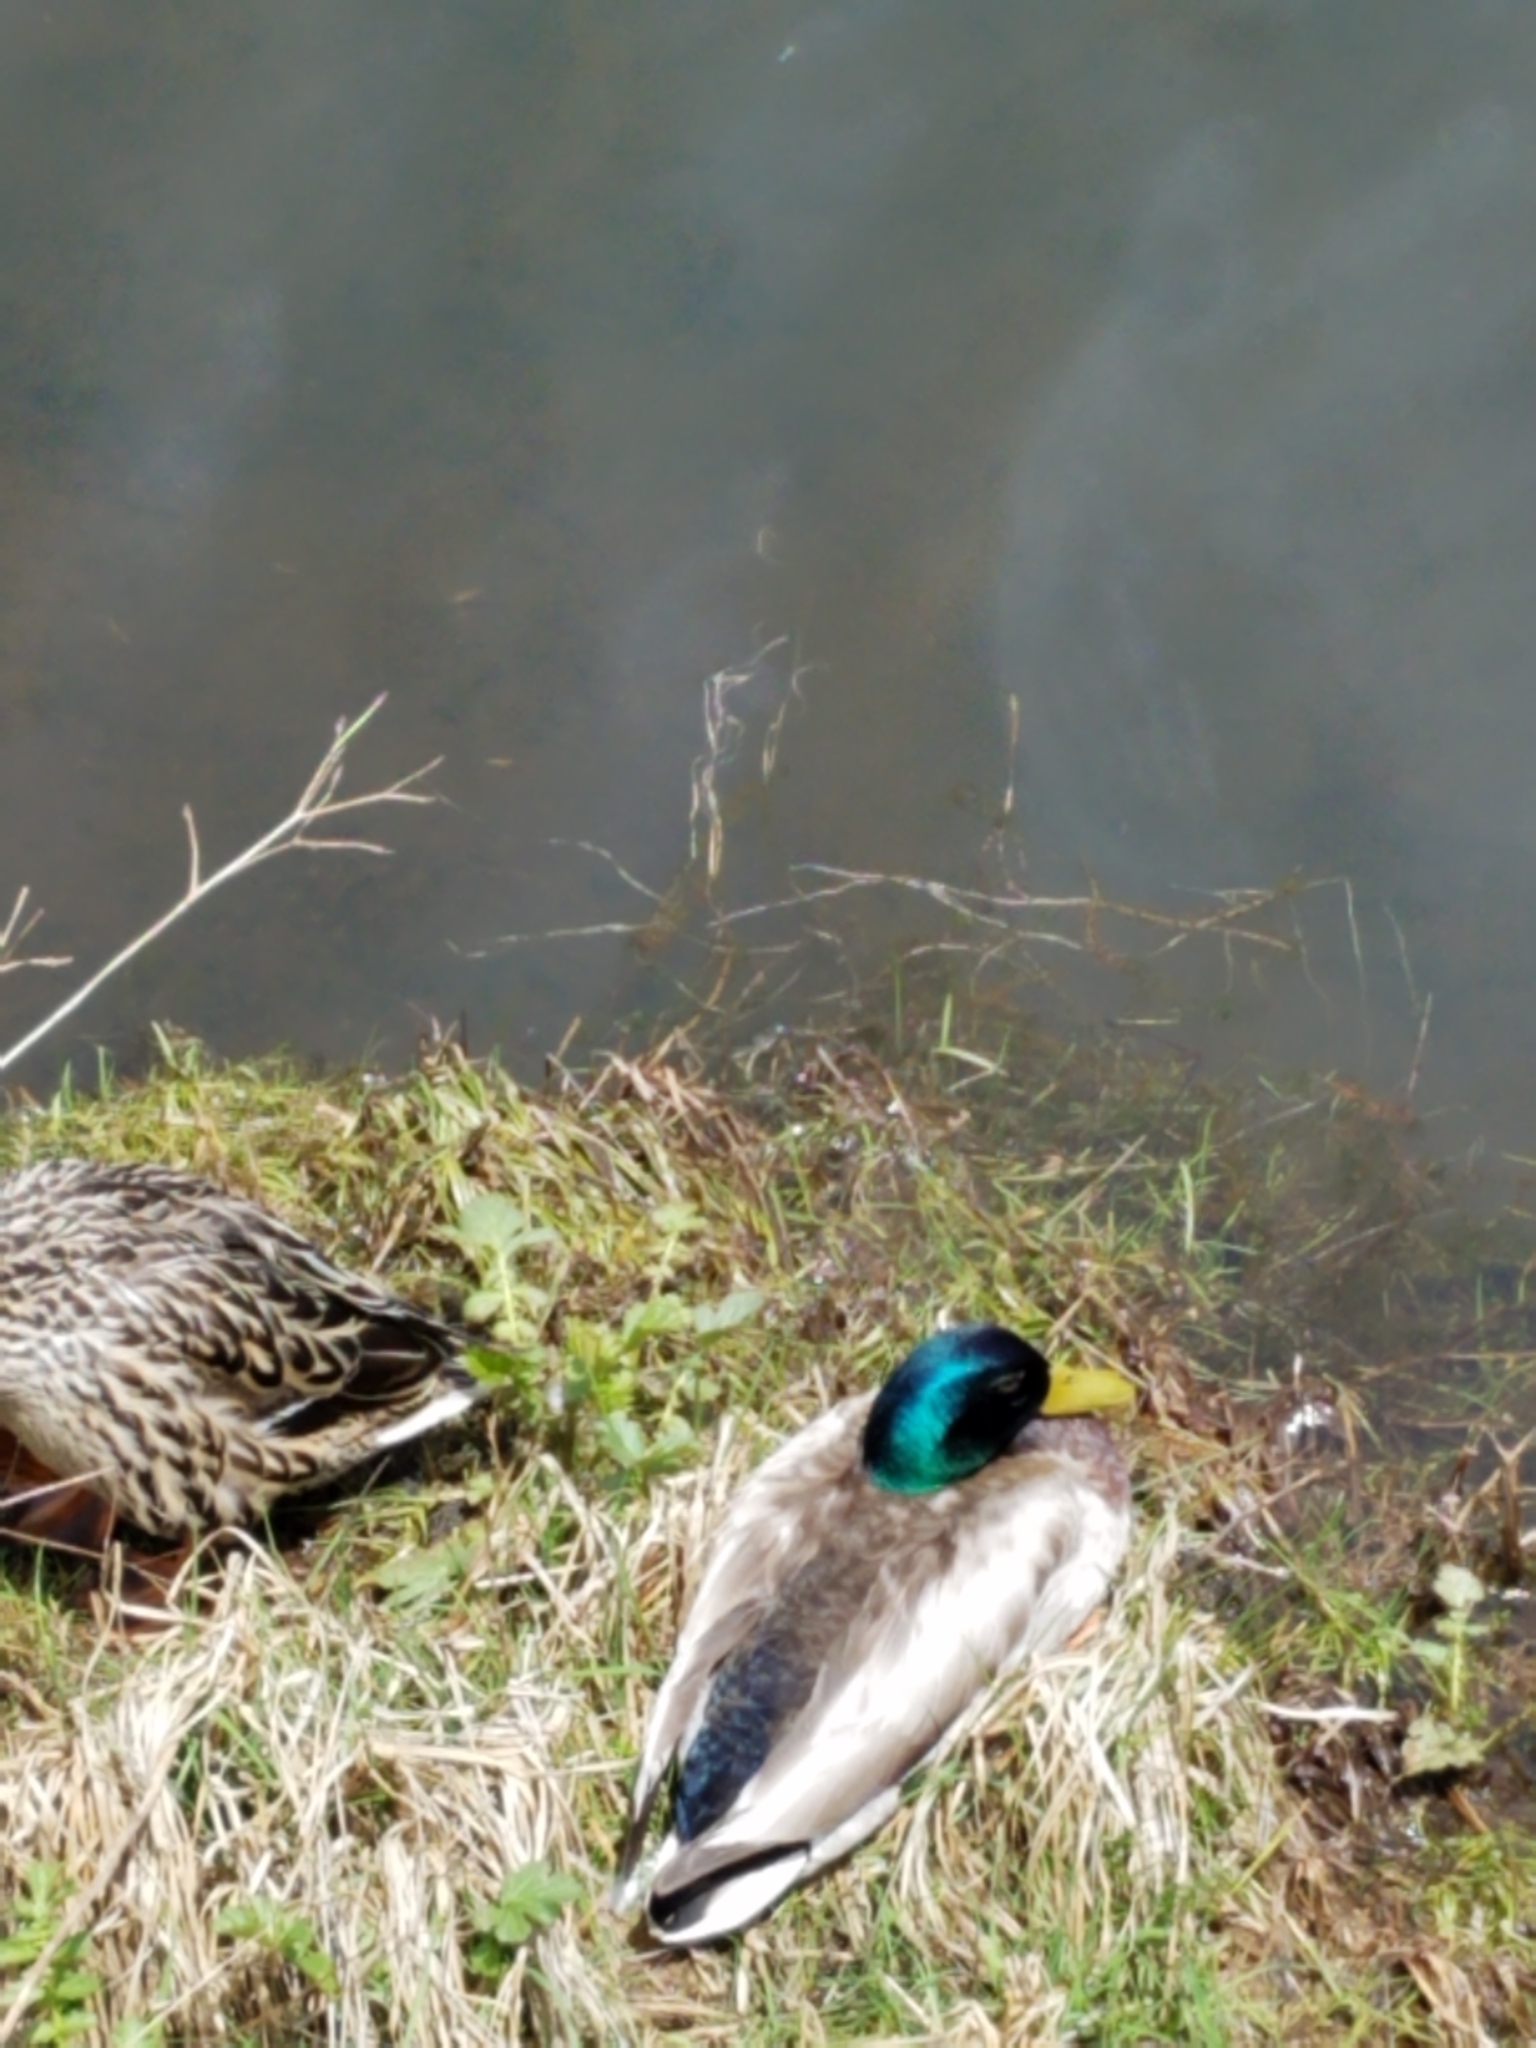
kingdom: Animalia
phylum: Chordata
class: Aves
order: Anseriformes
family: Anatidae
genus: Anas
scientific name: Anas platyrhynchos
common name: Mallard
